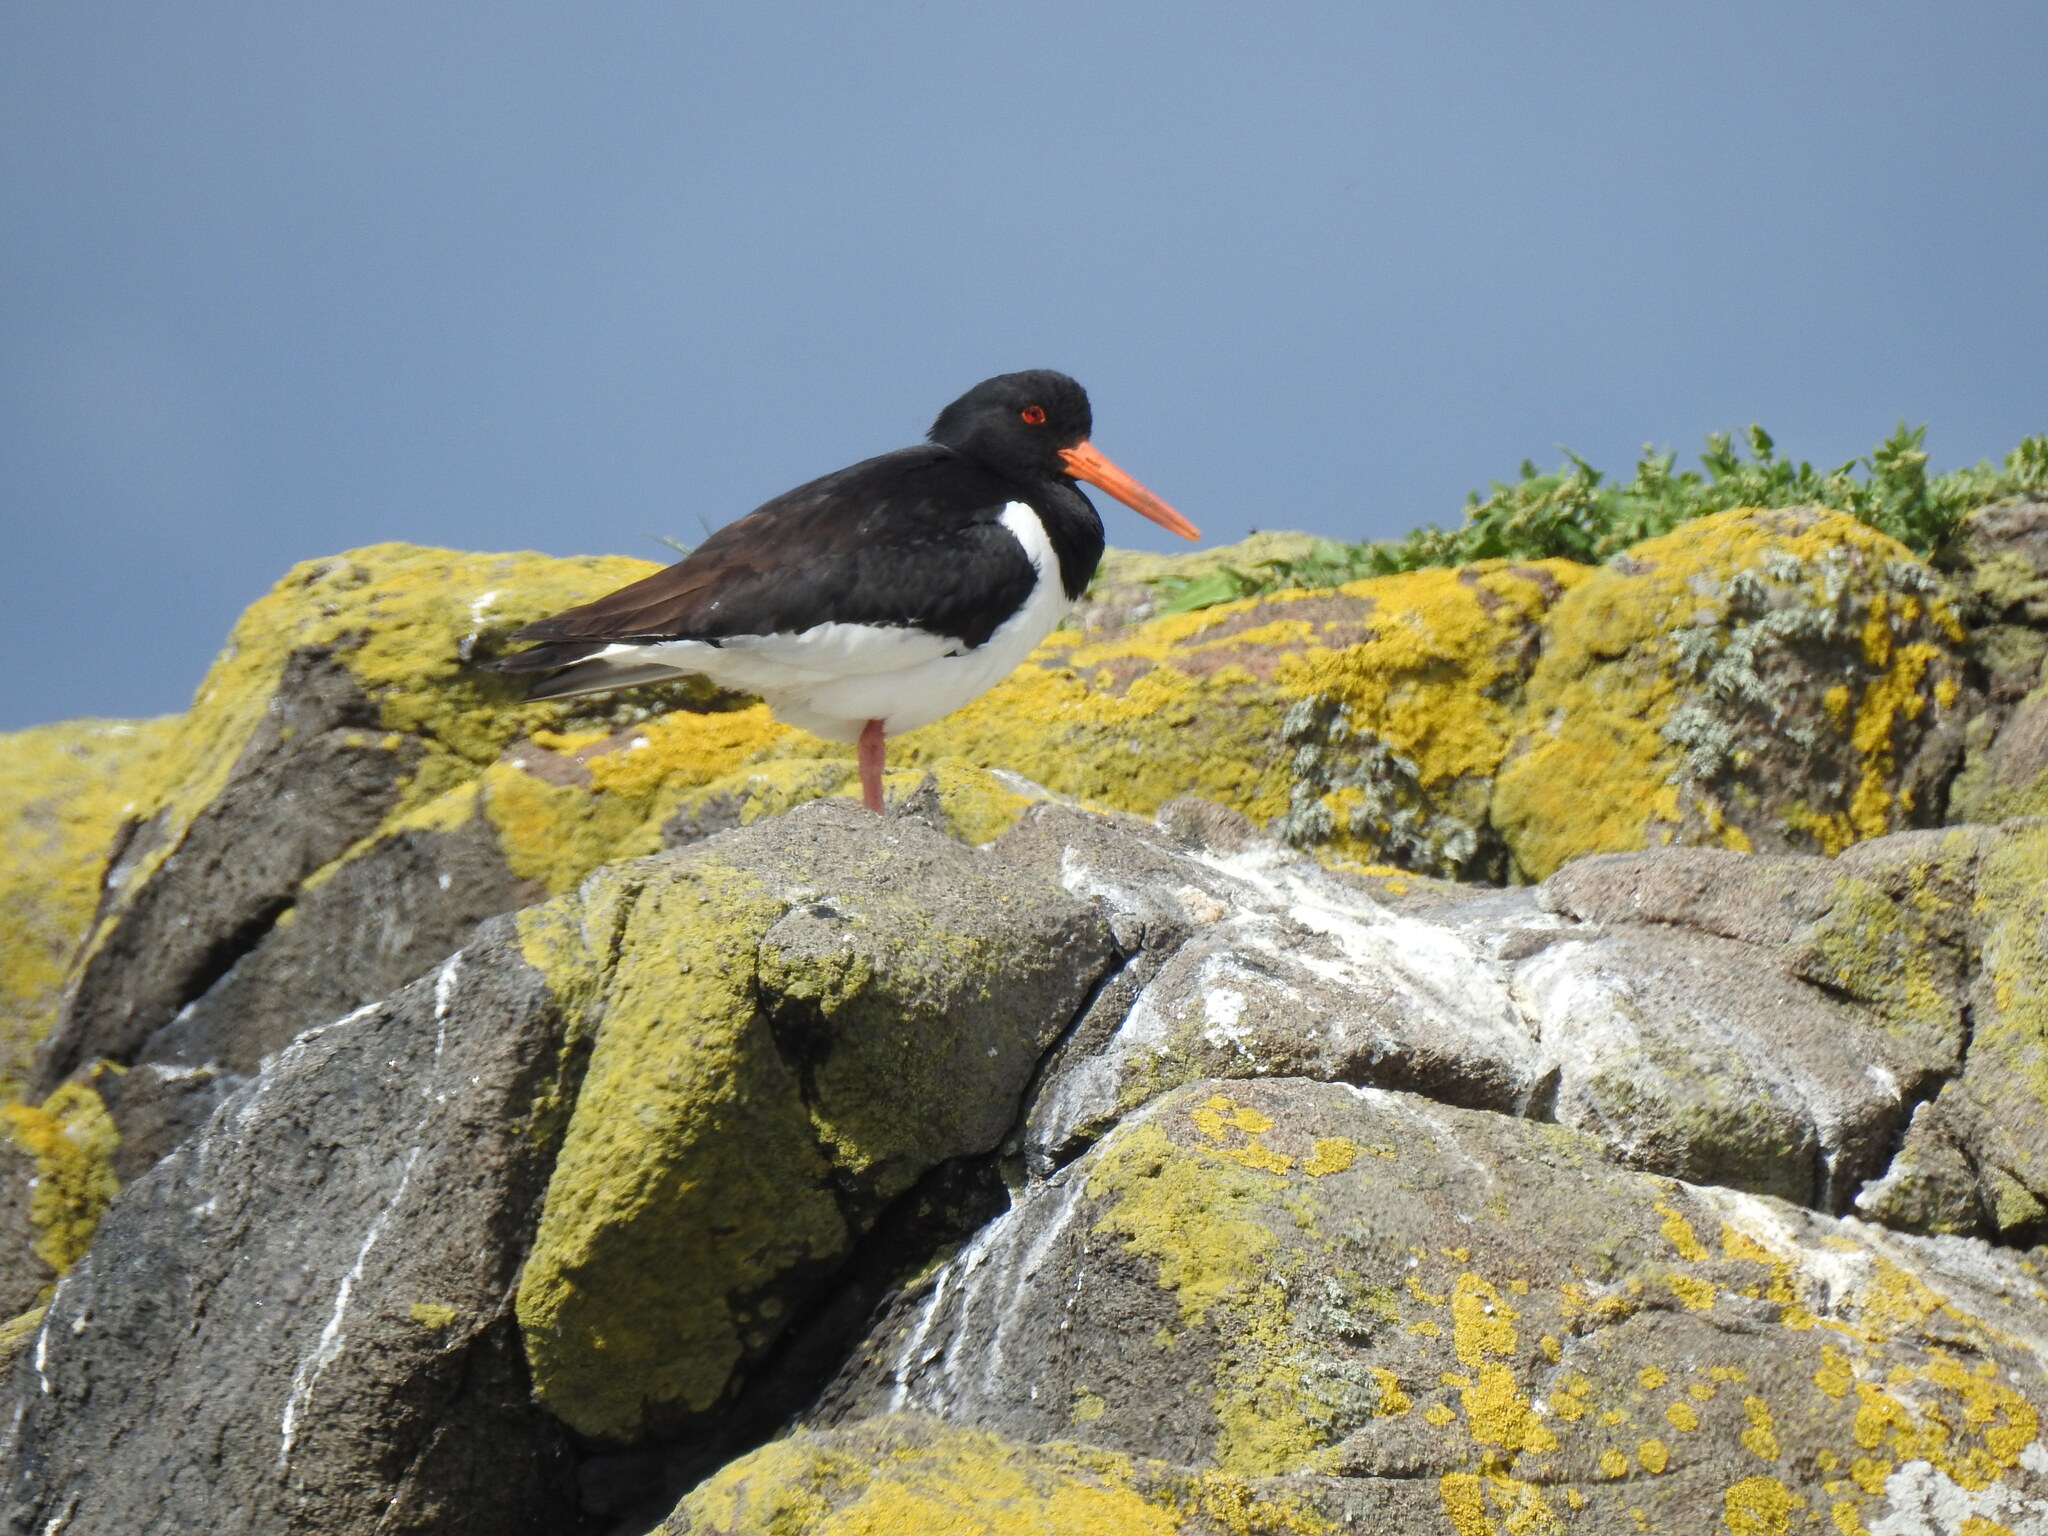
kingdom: Animalia
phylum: Chordata
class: Aves
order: Charadriiformes
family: Haematopodidae
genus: Haematopus
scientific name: Haematopus ostralegus
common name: Eurasian oystercatcher
